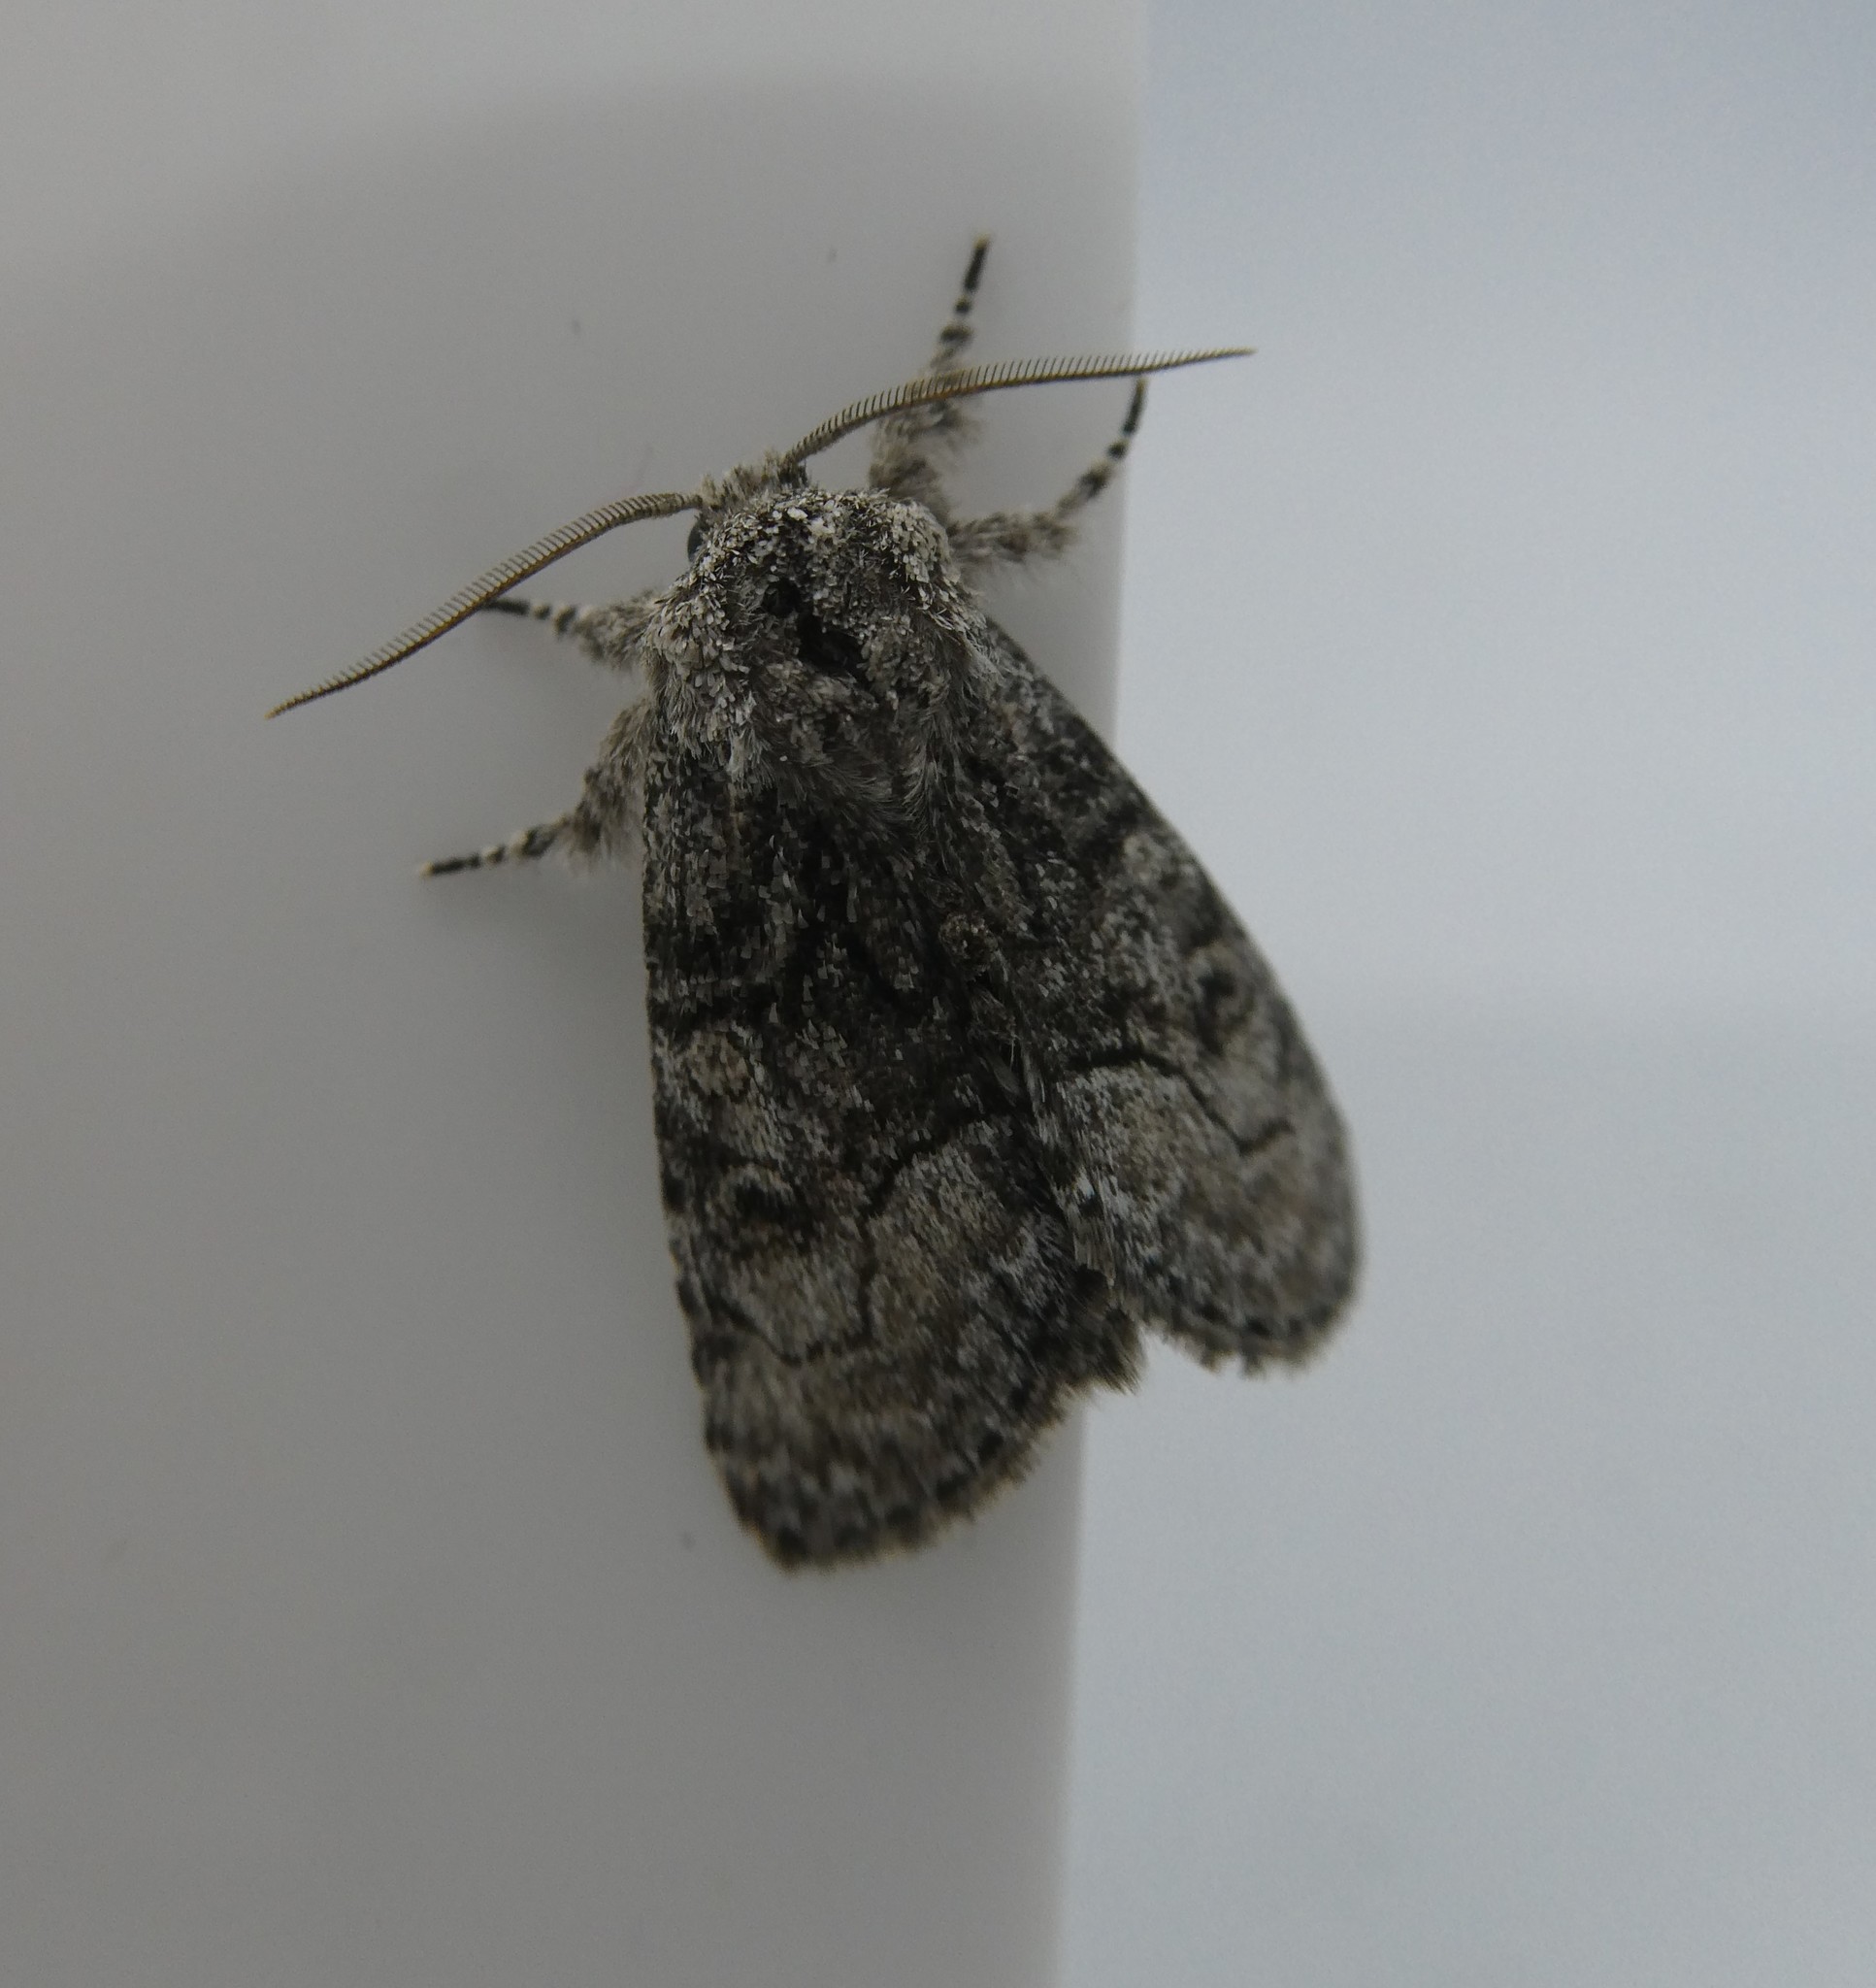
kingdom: Animalia
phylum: Arthropoda
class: Insecta
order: Lepidoptera
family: Noctuidae
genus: Raphia
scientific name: Raphia frater
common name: Brother
